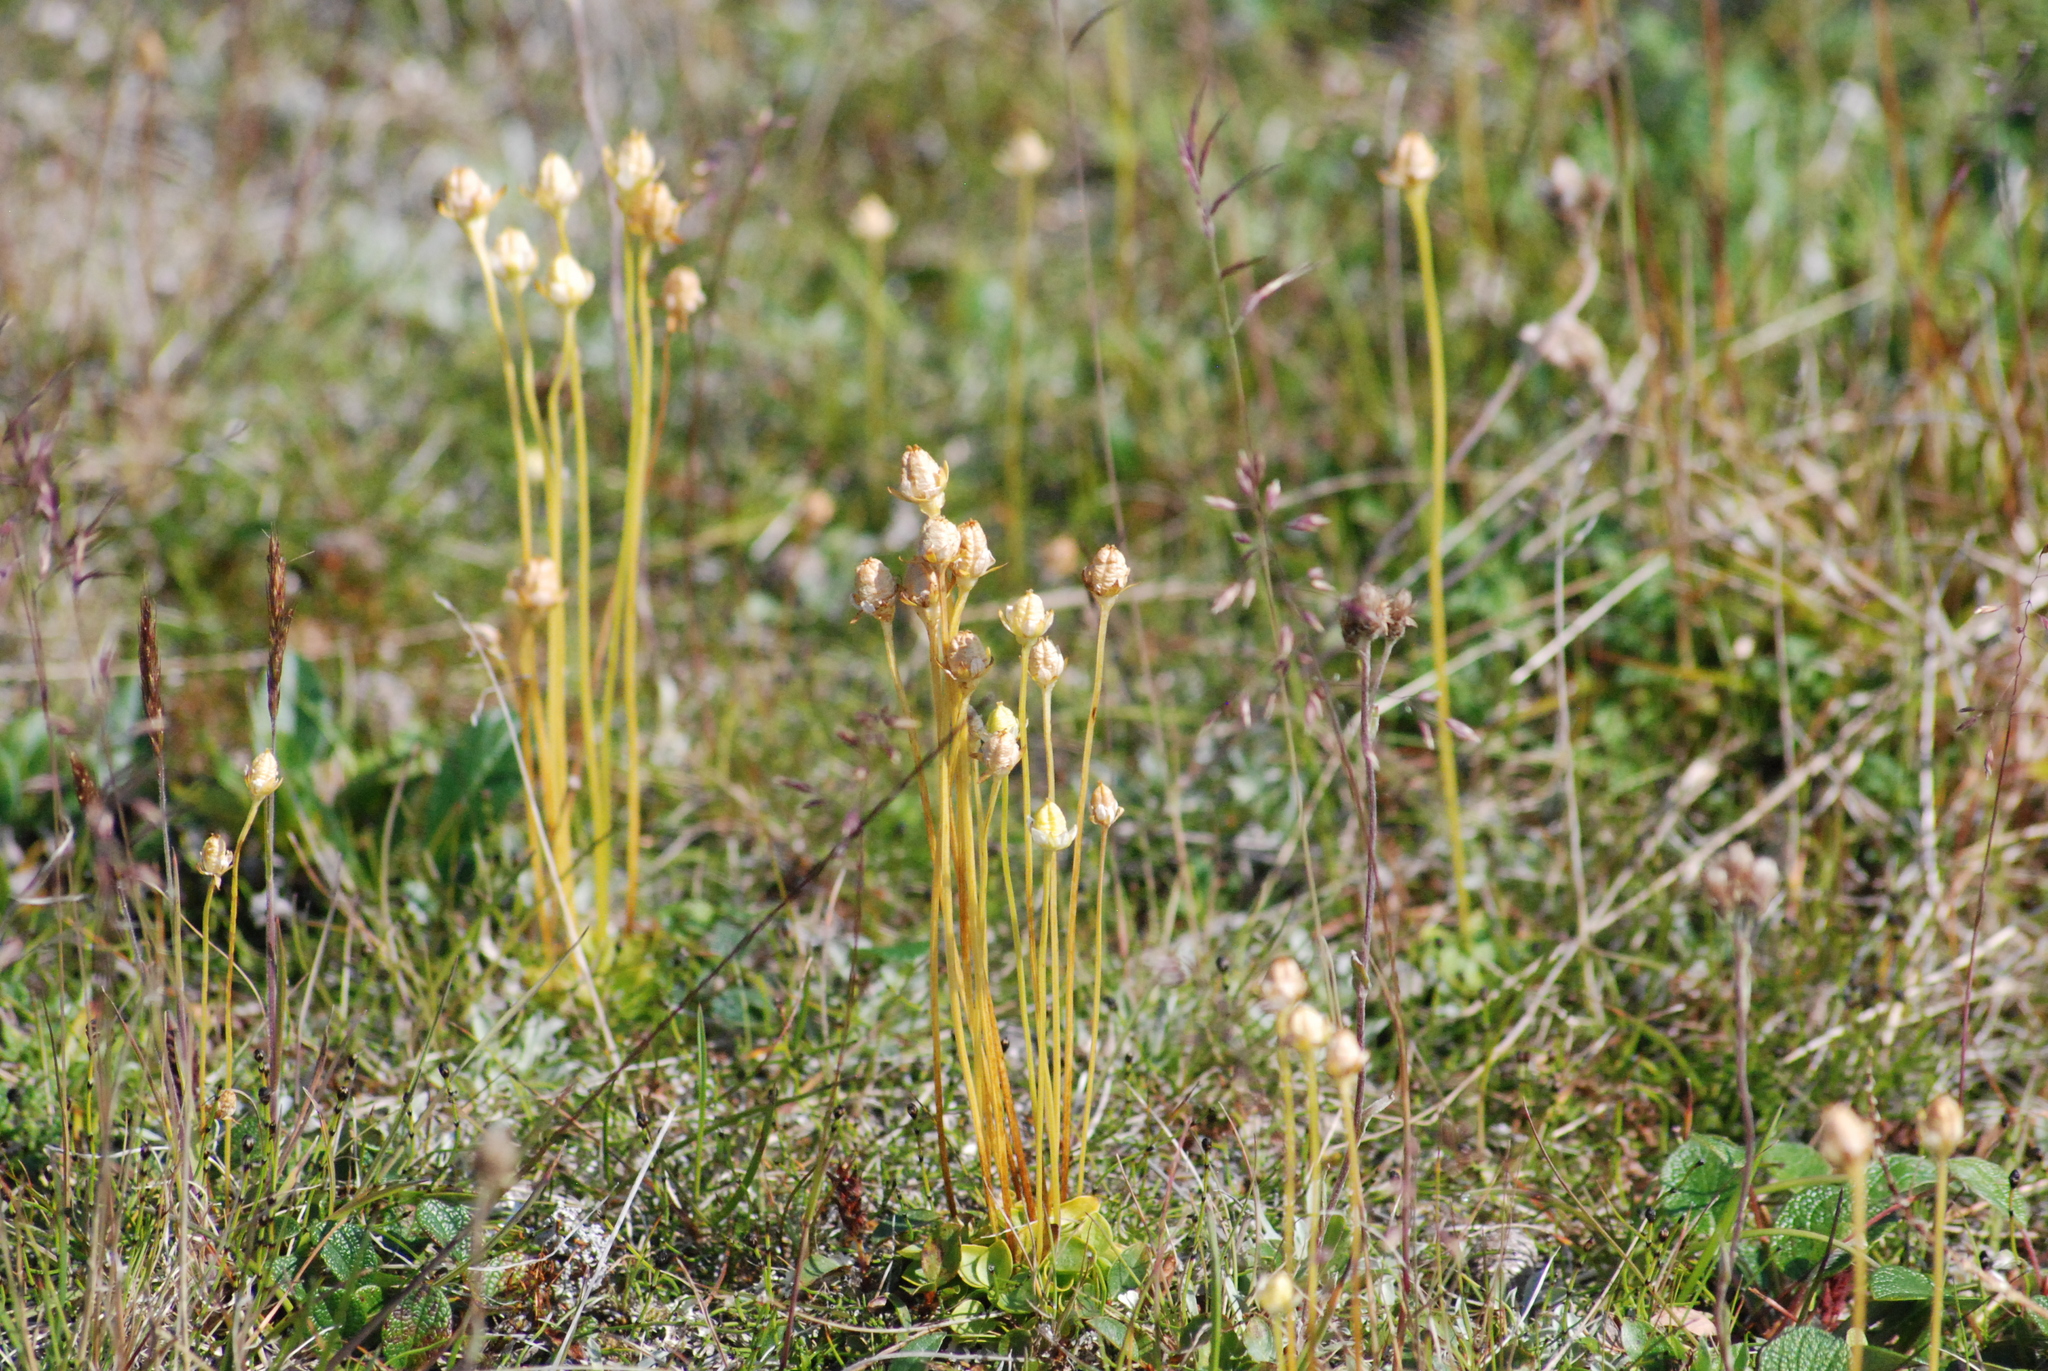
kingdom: Plantae
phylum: Tracheophyta
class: Magnoliopsida
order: Celastrales
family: Parnassiaceae
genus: Parnassia
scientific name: Parnassia kotzebuei
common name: Kotzebue's grass-of-parnassus
